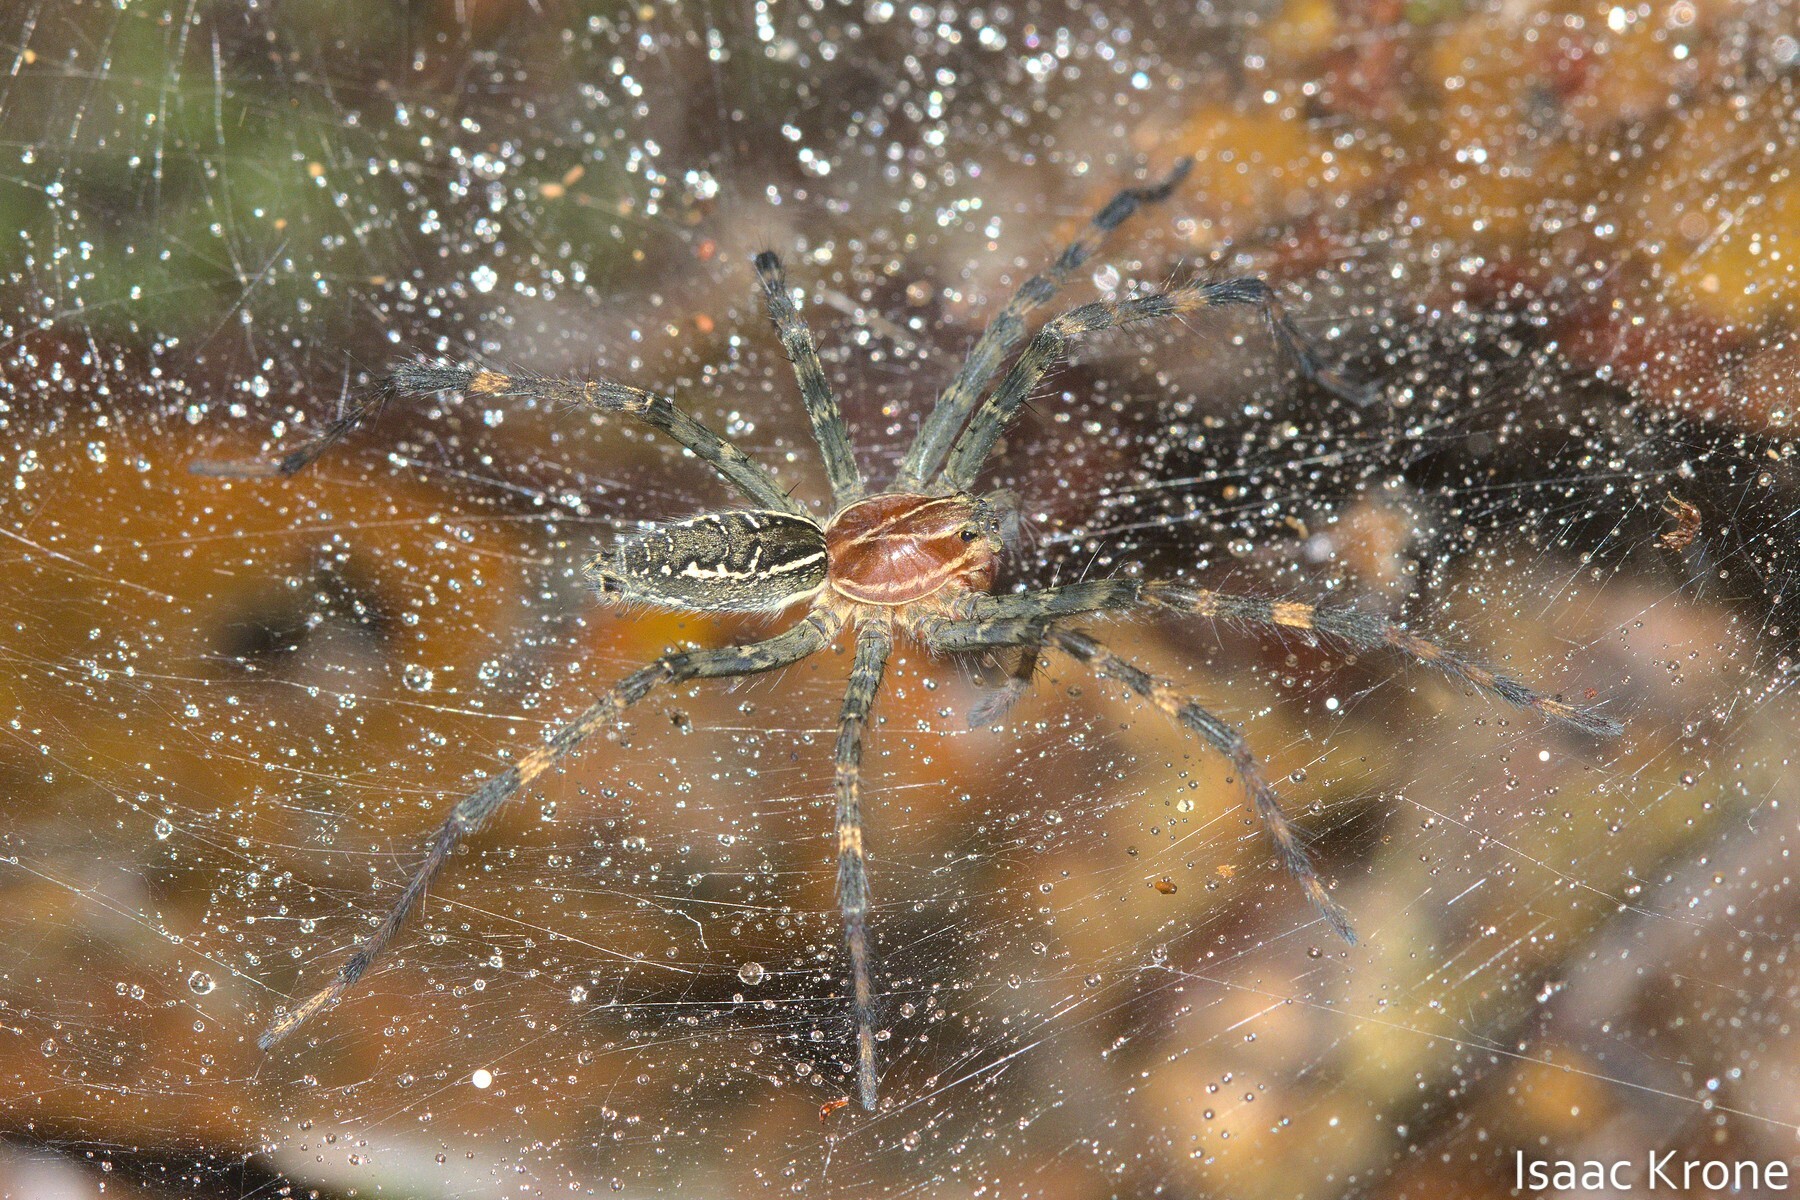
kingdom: Animalia
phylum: Arthropoda
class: Arachnida
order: Araneae
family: Lycosidae
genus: Aglaoctenus
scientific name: Aglaoctenus castaneus
